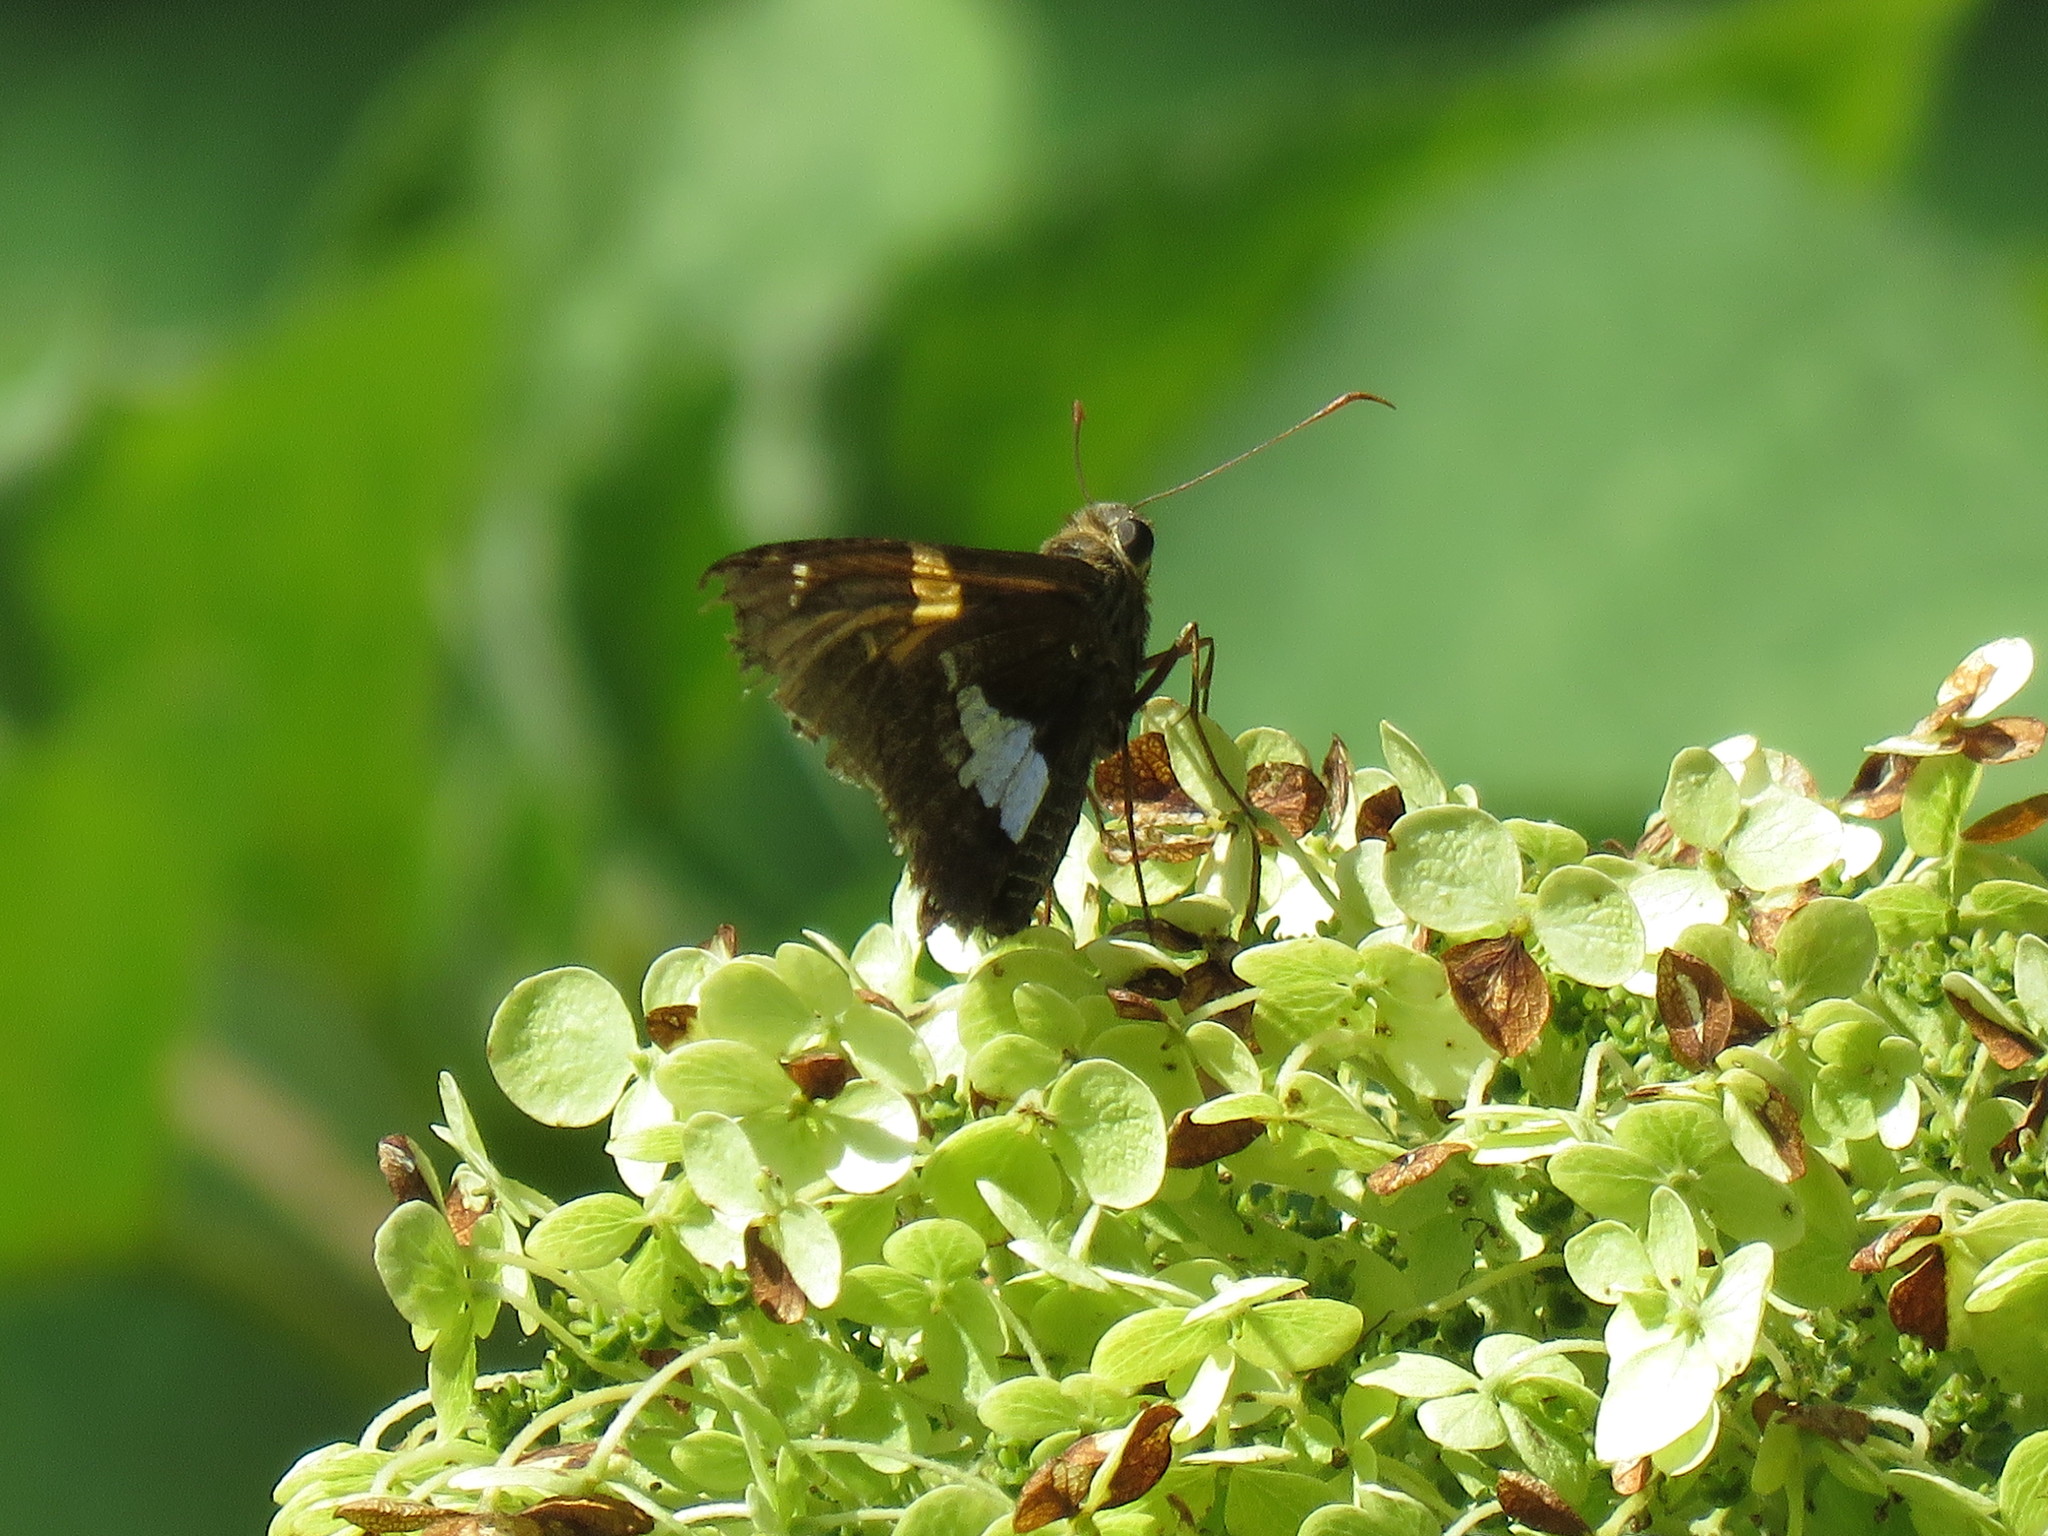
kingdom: Animalia
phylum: Arthropoda
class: Insecta
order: Lepidoptera
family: Hesperiidae
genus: Epargyreus
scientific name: Epargyreus clarus
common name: Silver-spotted skipper
